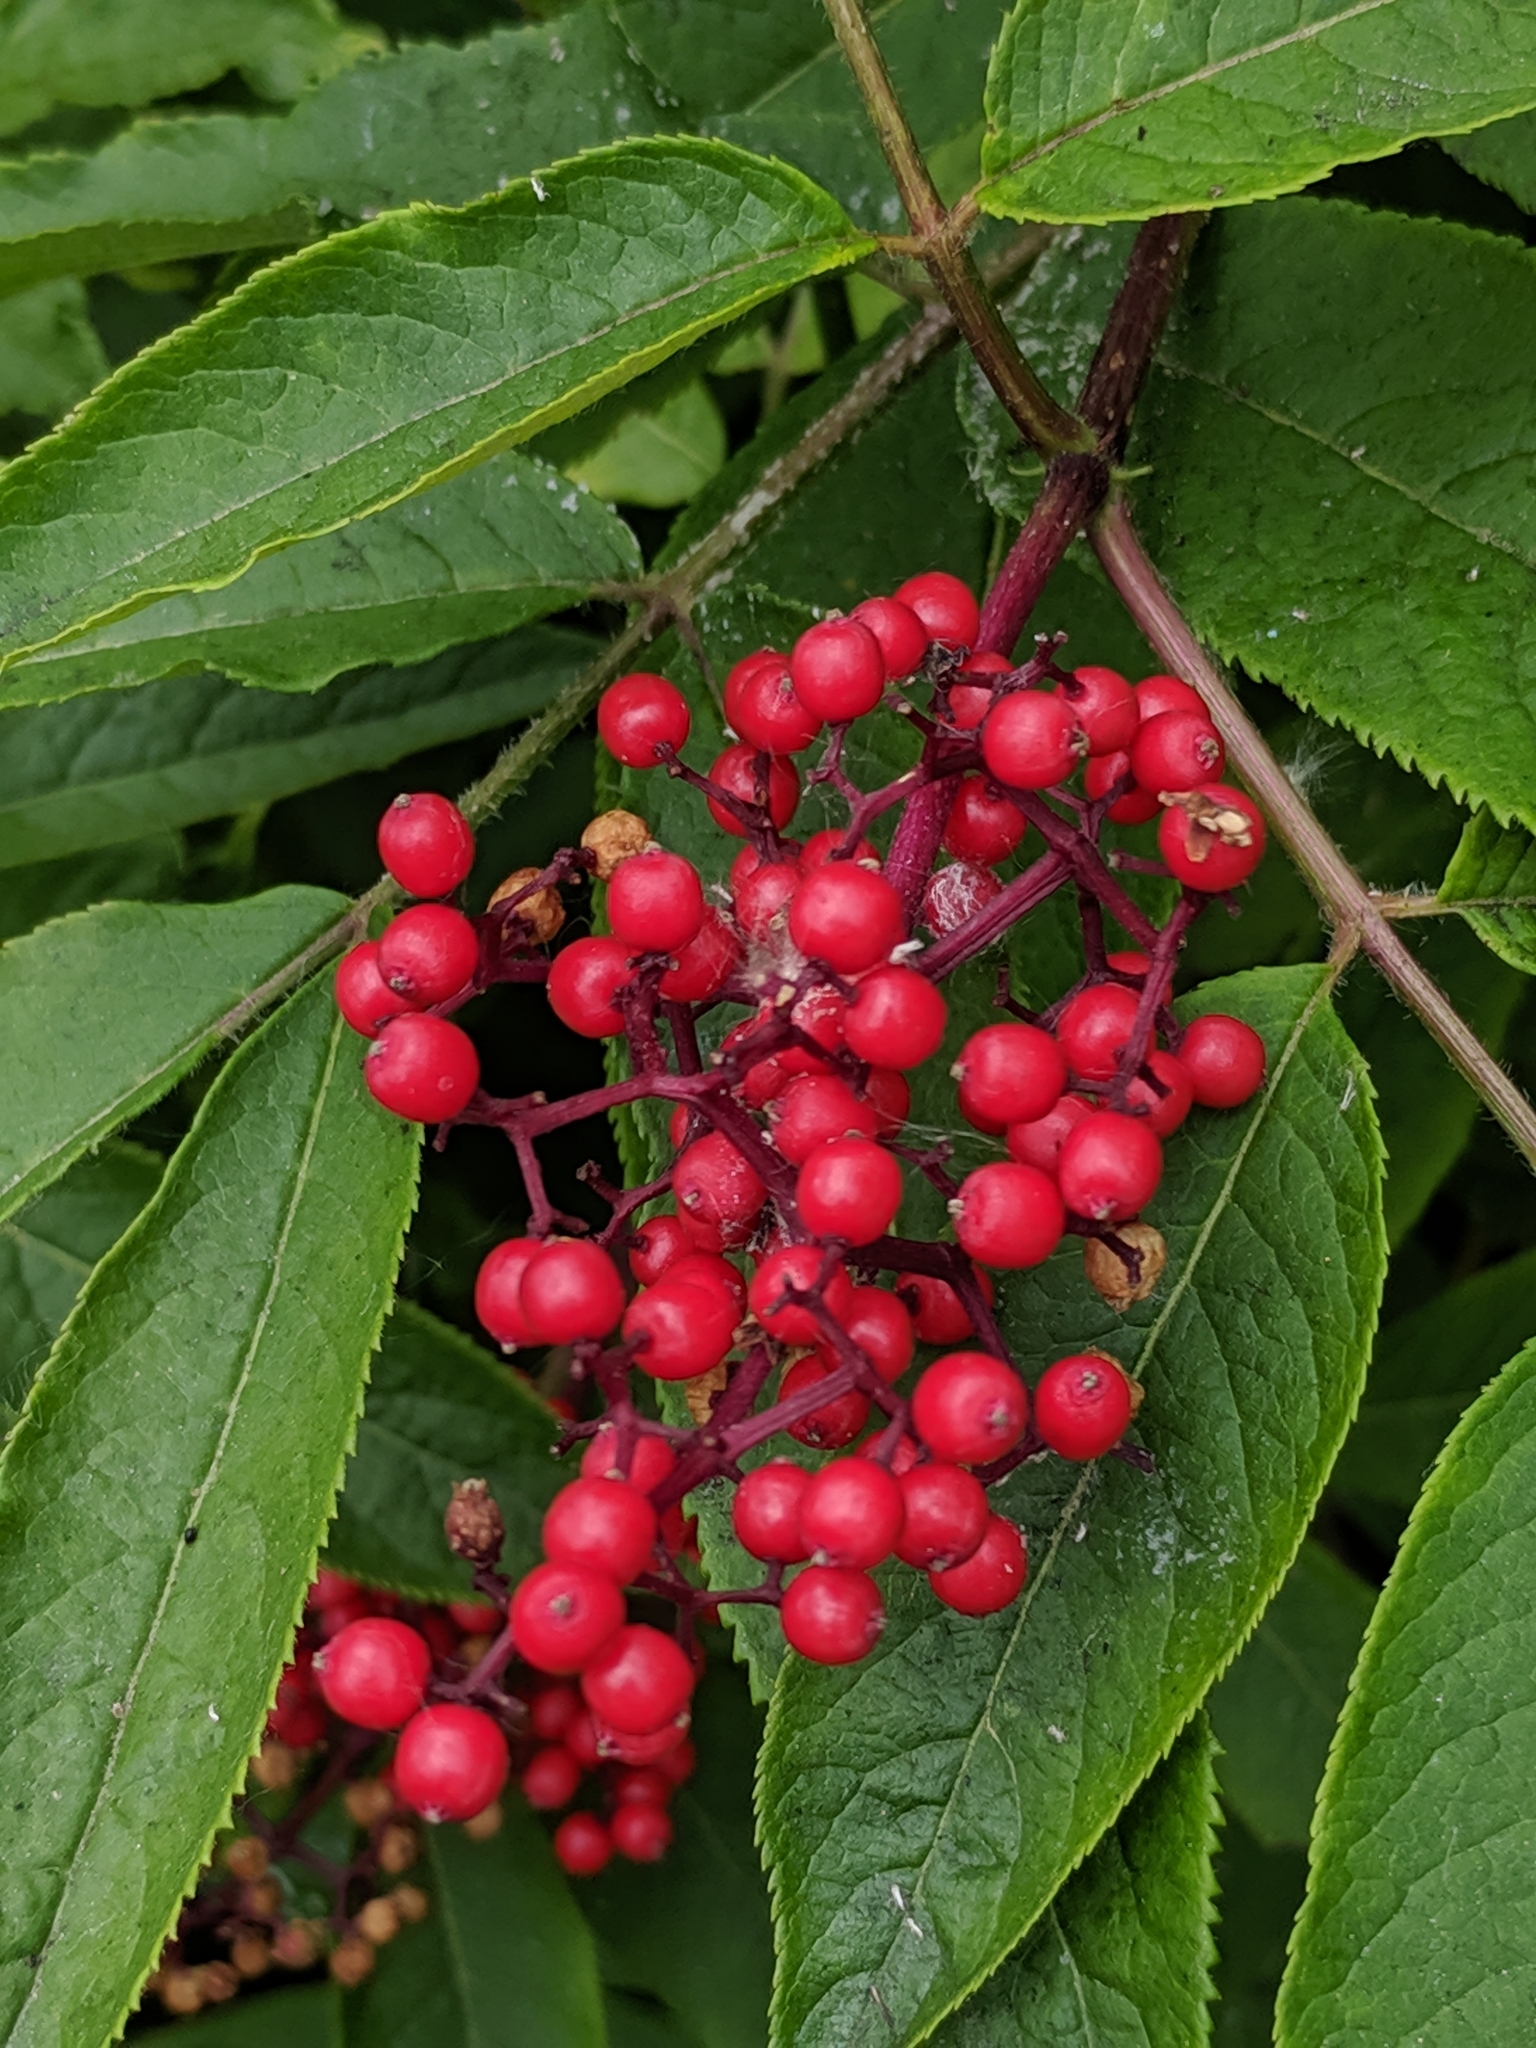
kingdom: Plantae
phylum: Tracheophyta
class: Magnoliopsida
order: Dipsacales
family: Viburnaceae
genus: Sambucus
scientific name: Sambucus racemosa
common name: Red-berried elder
